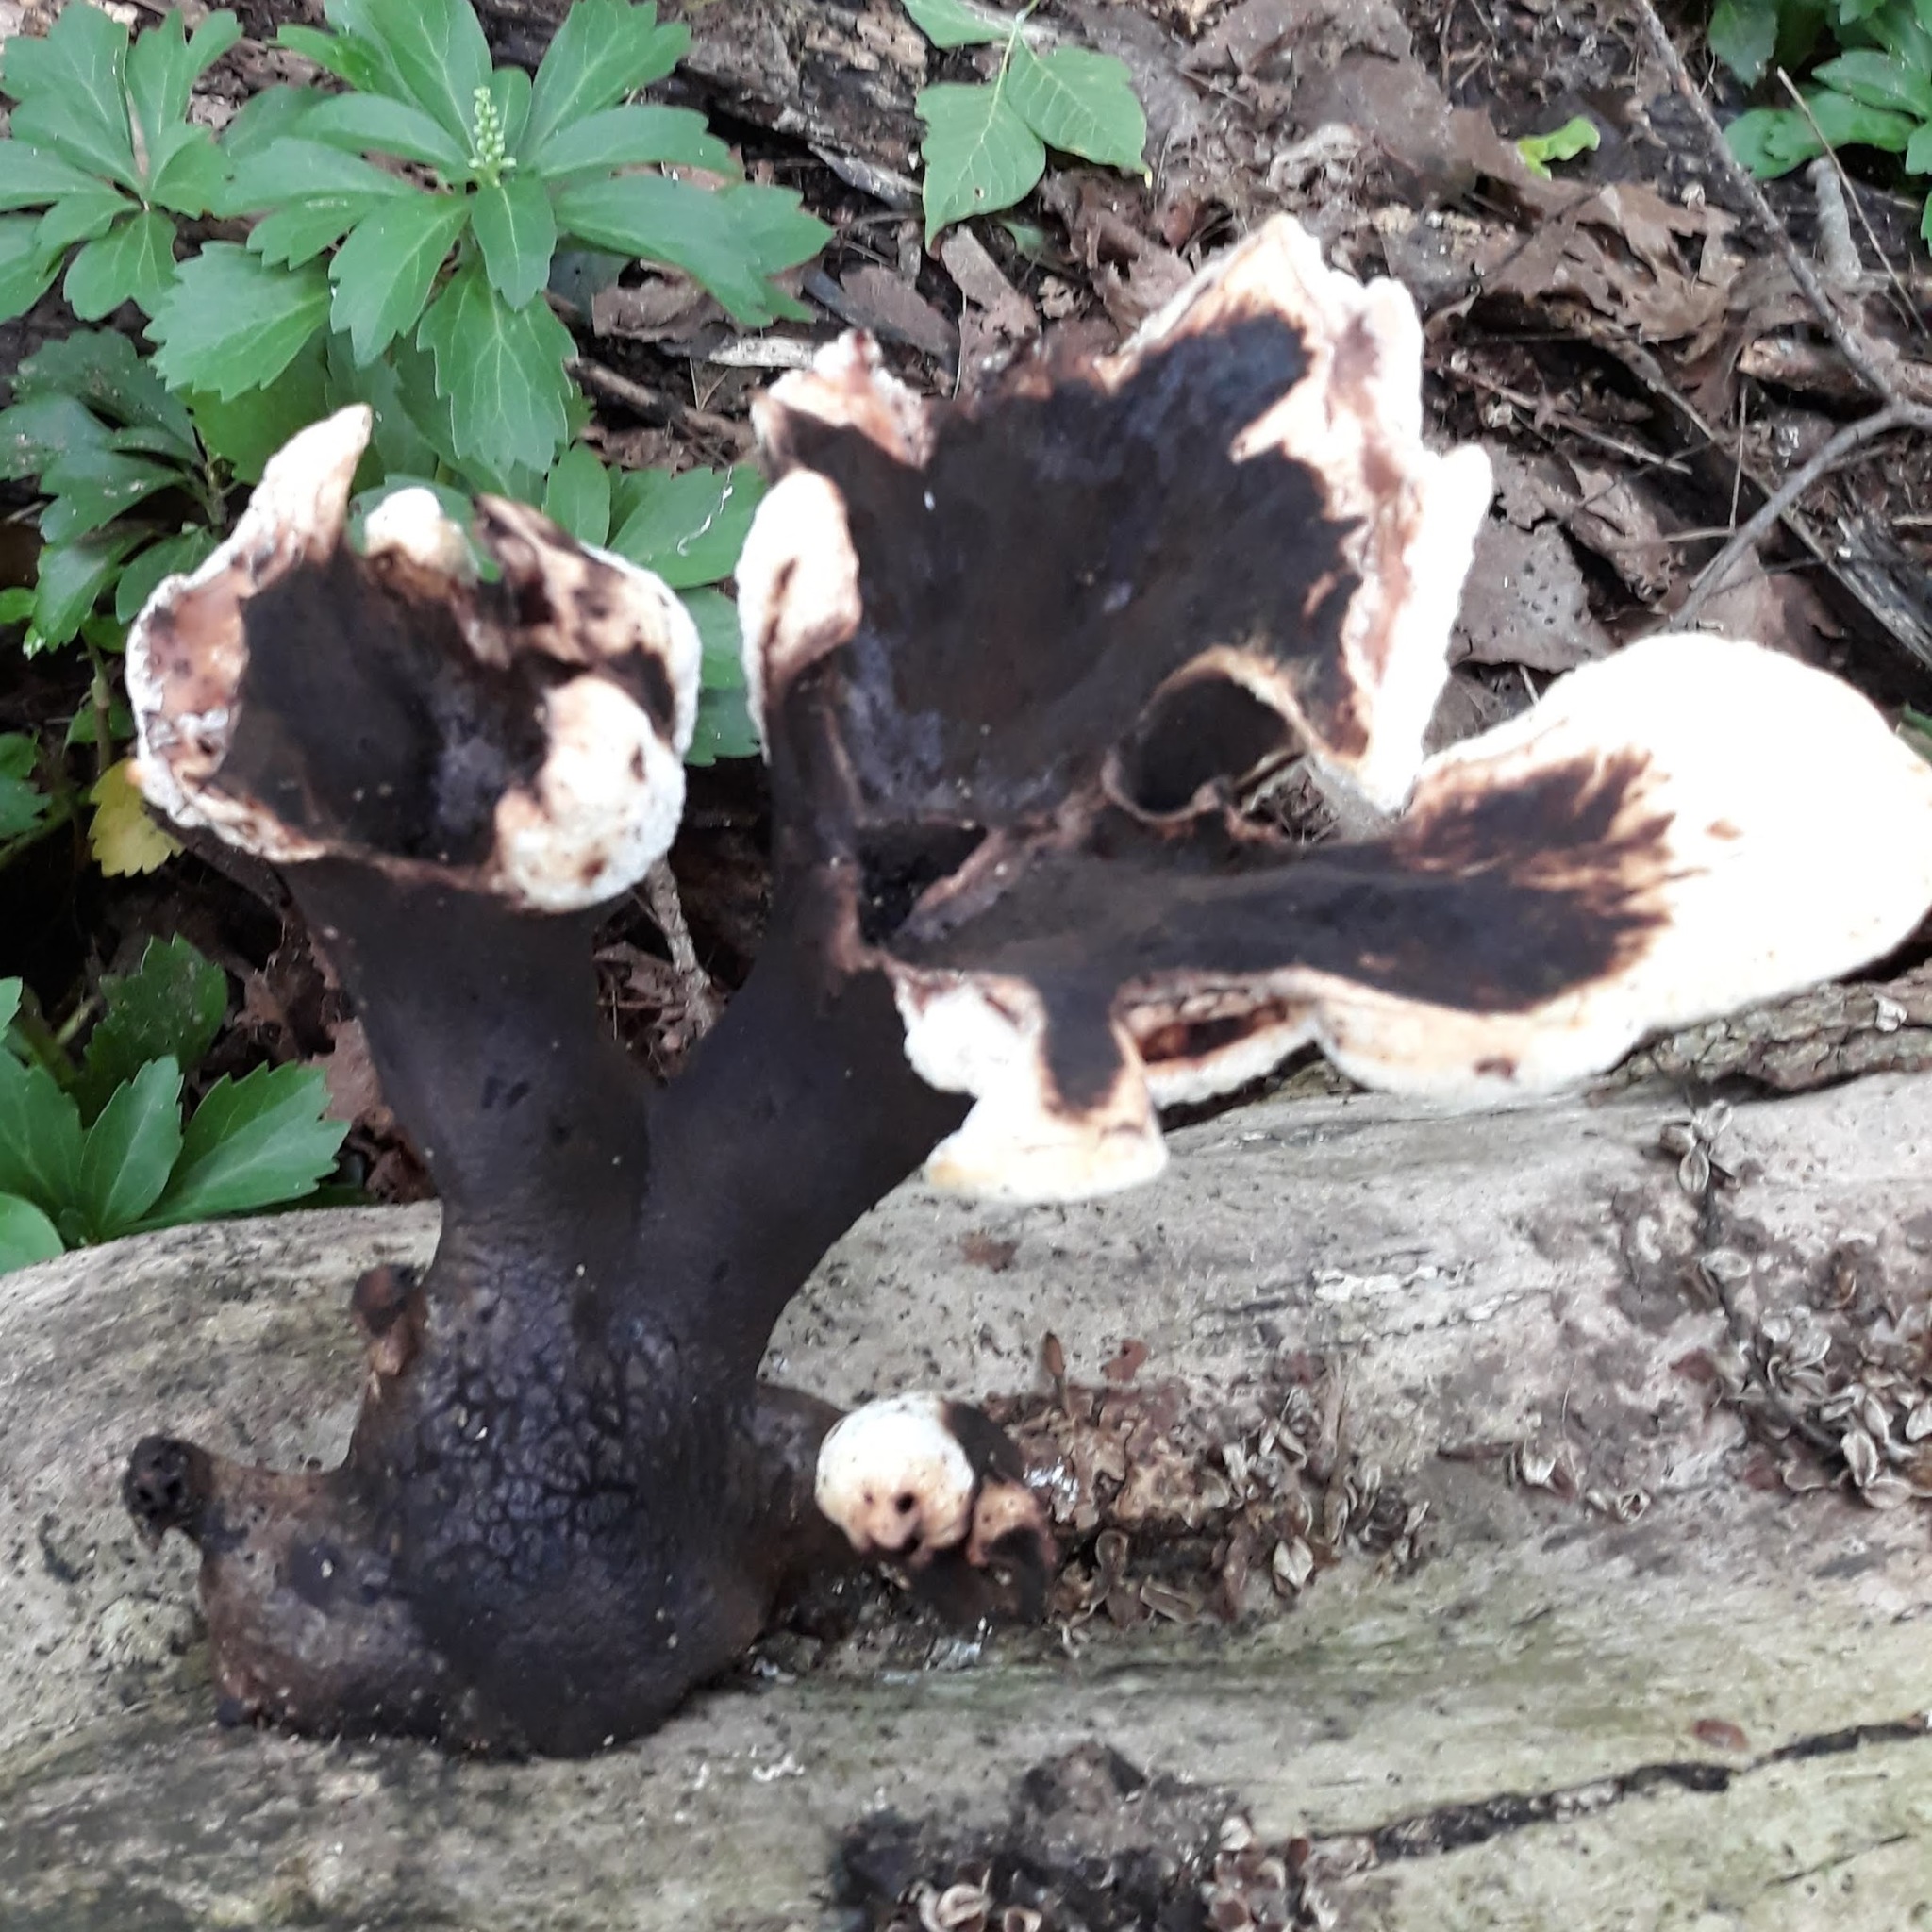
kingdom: Fungi
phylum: Basidiomycota
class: Agaricomycetes
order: Polyporales
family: Polyporaceae
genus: Cerioporus
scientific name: Cerioporus squamosus
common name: Dryad's saddle
